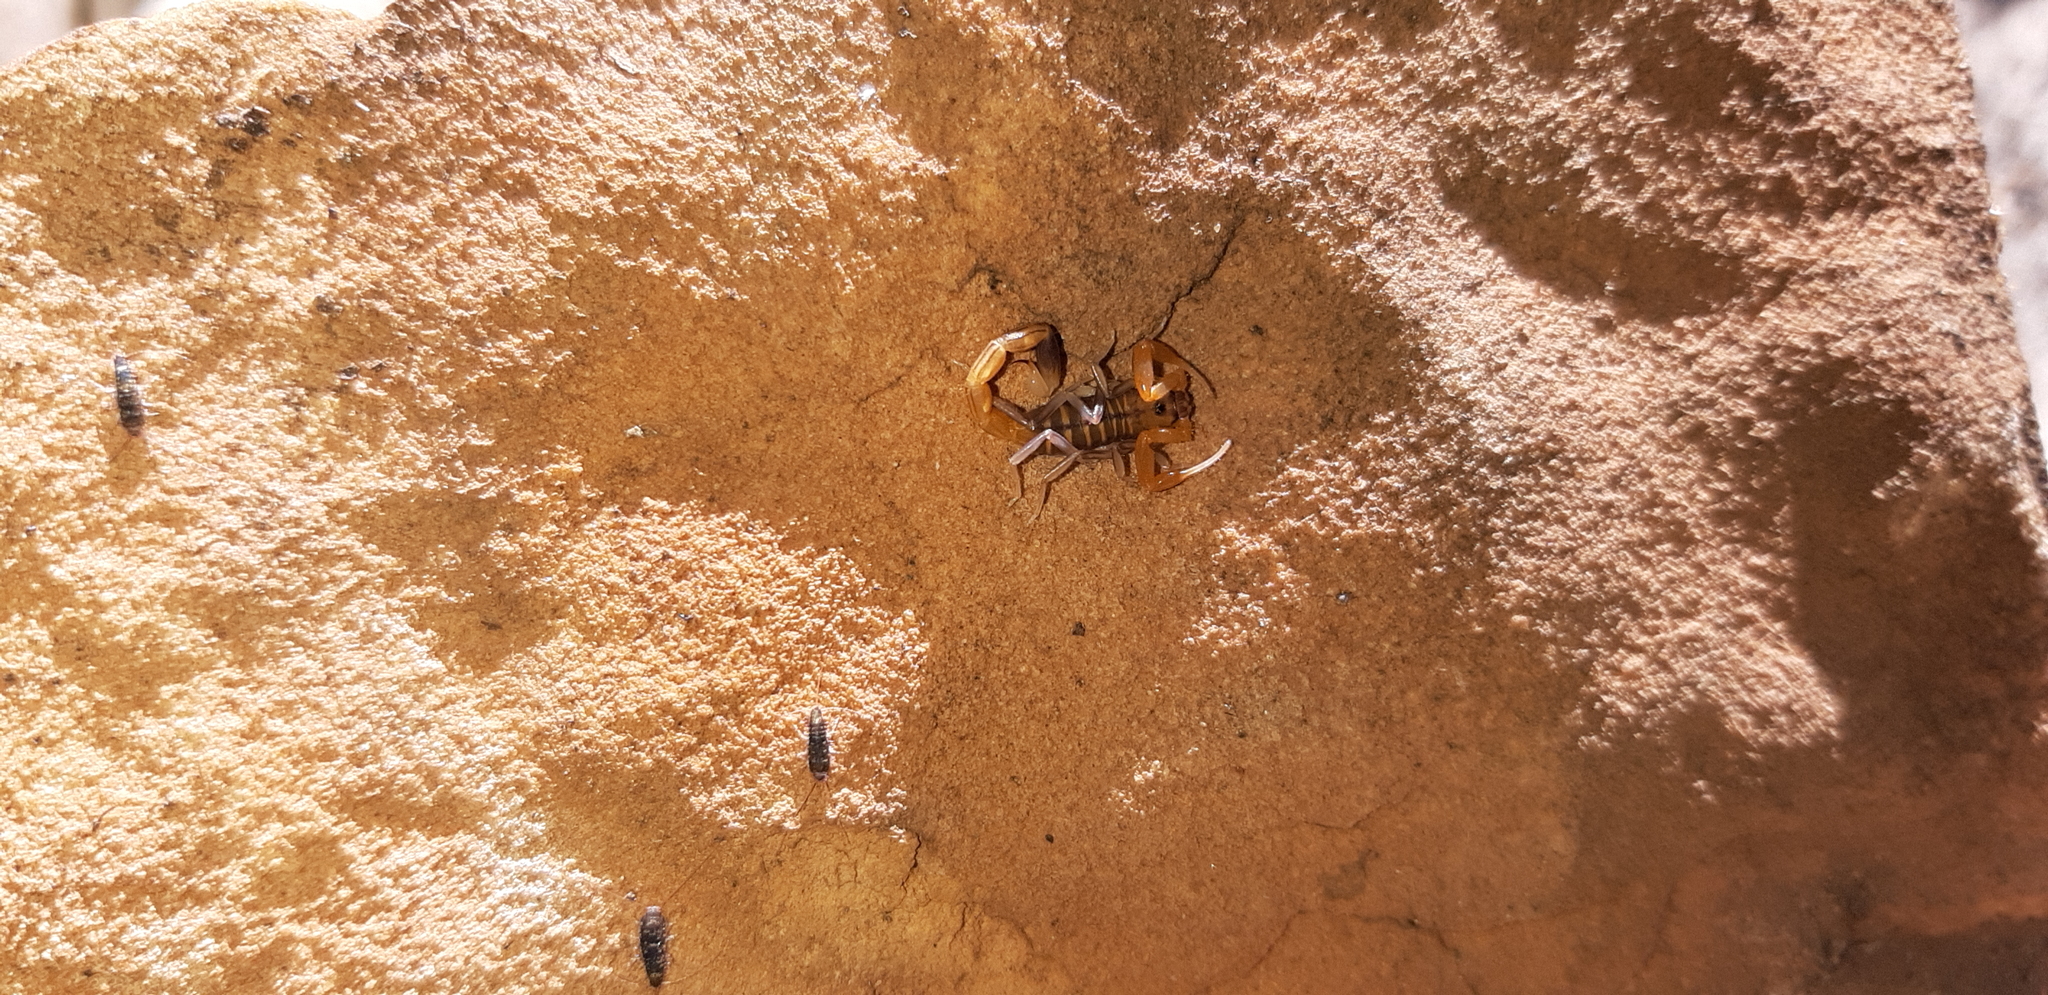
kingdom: Animalia
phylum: Arthropoda
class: Arachnida
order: Scorpiones
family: Buthidae
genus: Uroplectes
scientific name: Uroplectes planimanus
